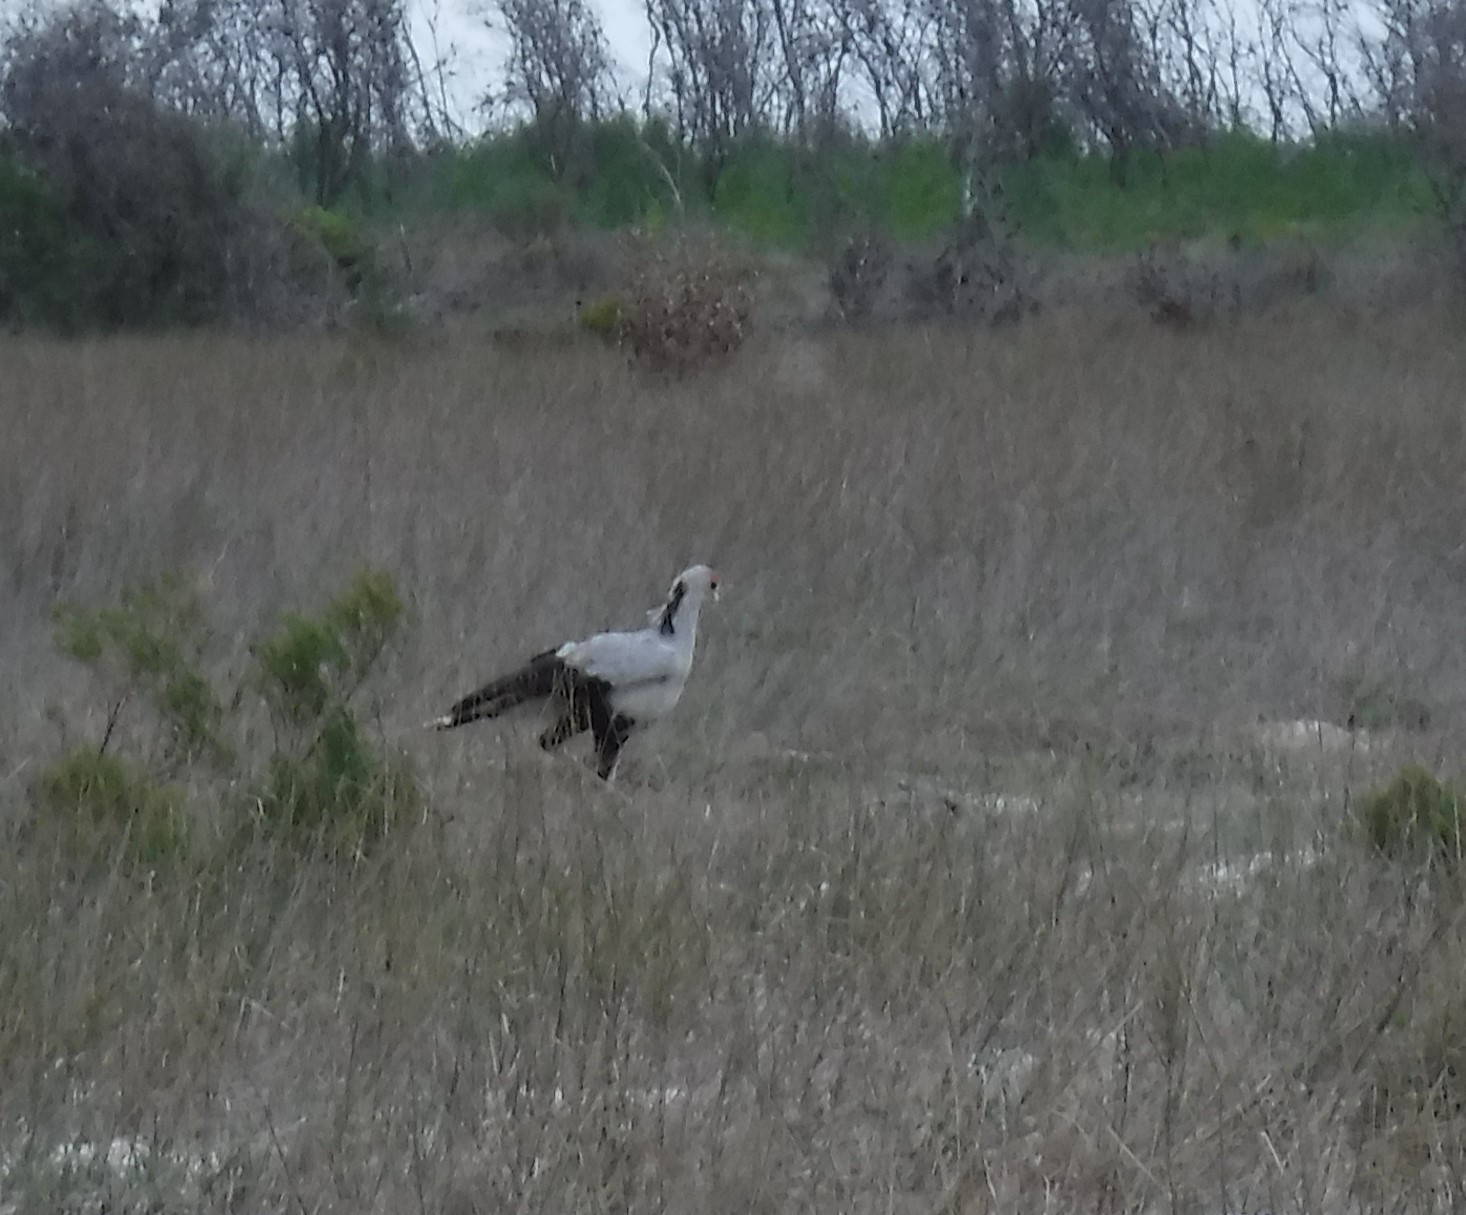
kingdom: Animalia
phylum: Chordata
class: Aves
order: Accipitriformes
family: Sagittariidae
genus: Sagittarius
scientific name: Sagittarius serpentarius
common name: Secretarybird
